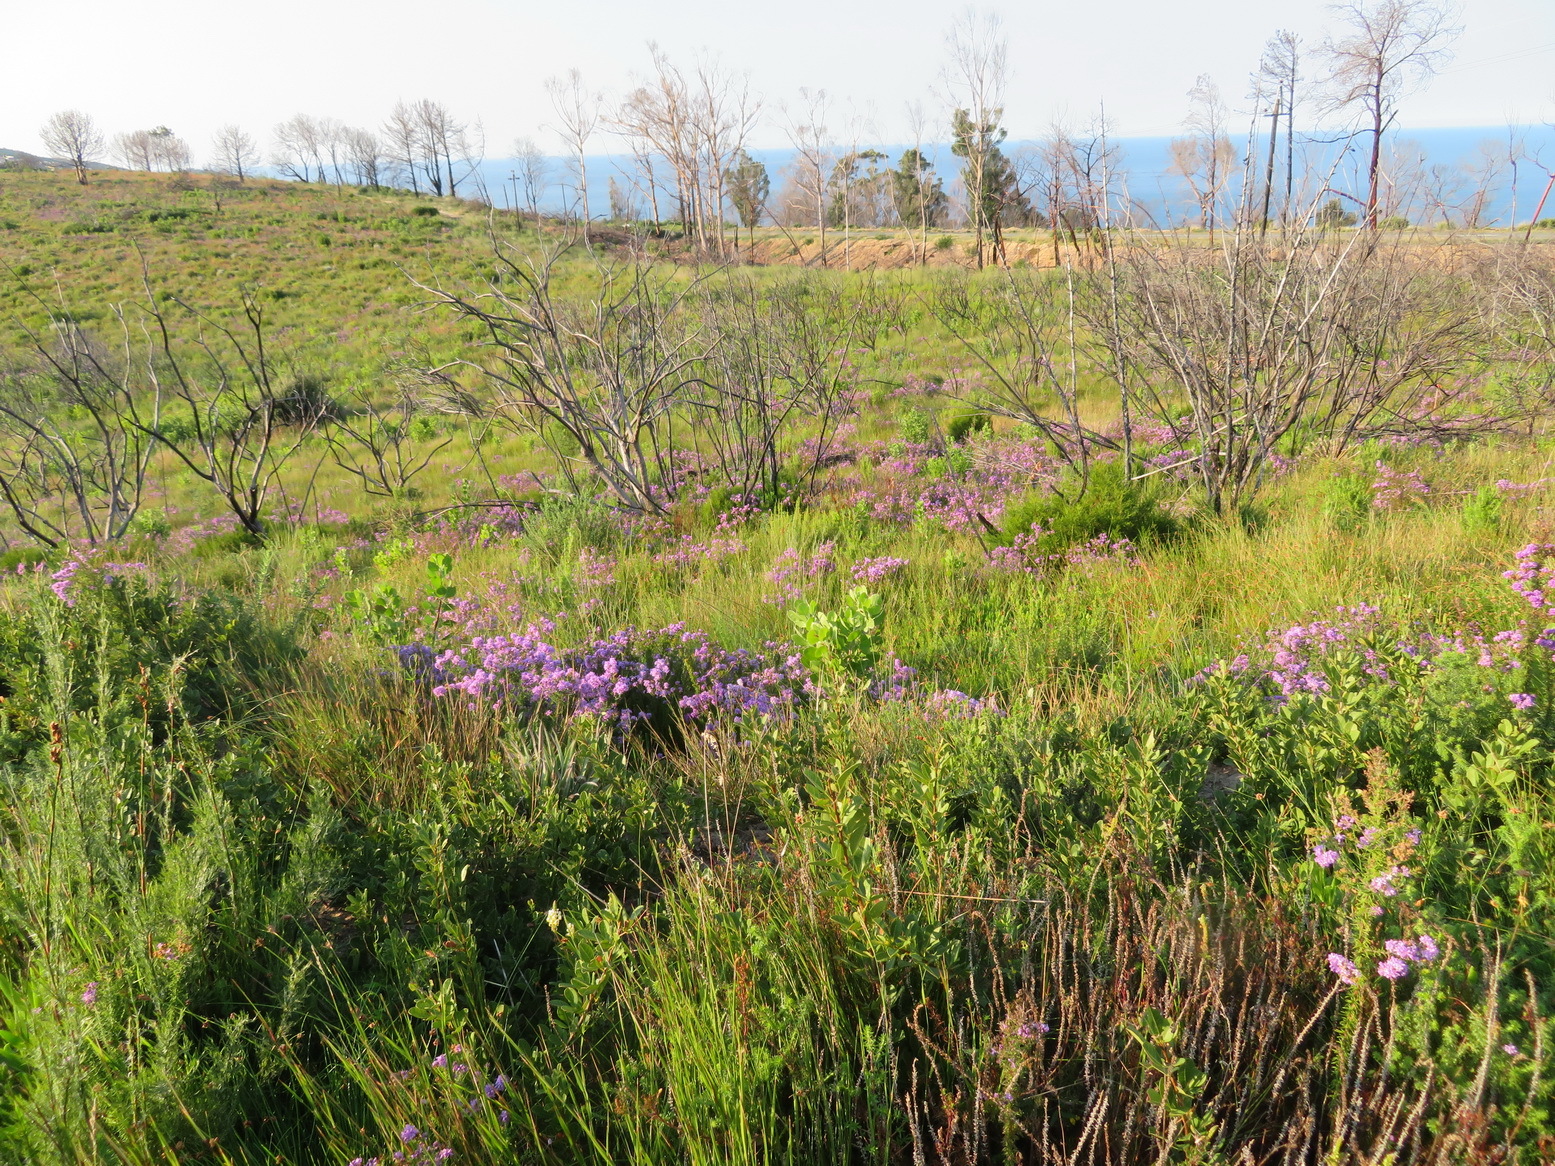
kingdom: Plantae
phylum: Tracheophyta
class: Magnoliopsida
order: Lamiales
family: Scrophulariaceae
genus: Selago
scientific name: Selago villicaulis
